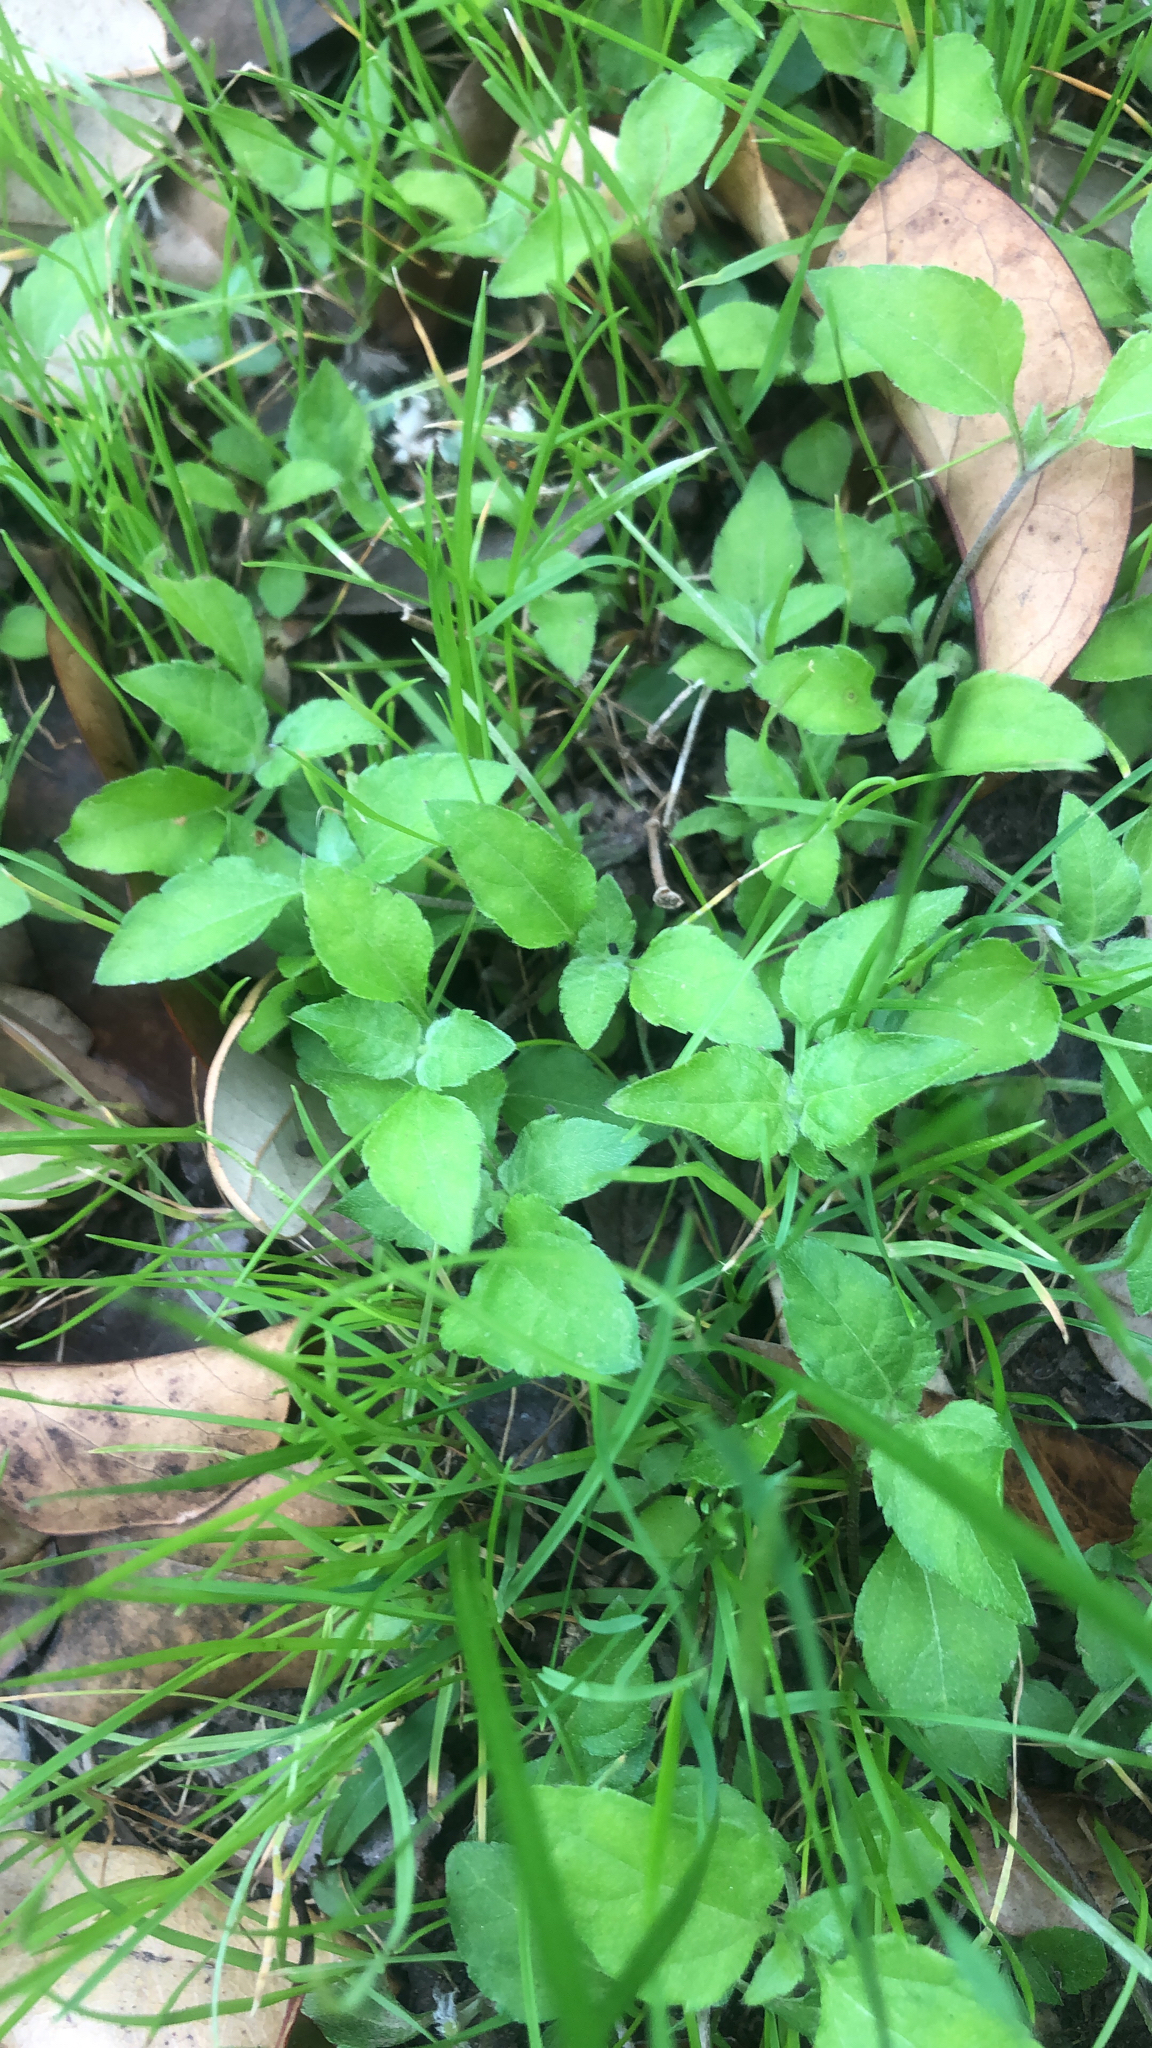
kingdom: Plantae
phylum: Tracheophyta
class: Magnoliopsida
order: Asterales
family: Asteraceae
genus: Calyptocarpus
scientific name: Calyptocarpus vialis
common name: Straggler daisy
